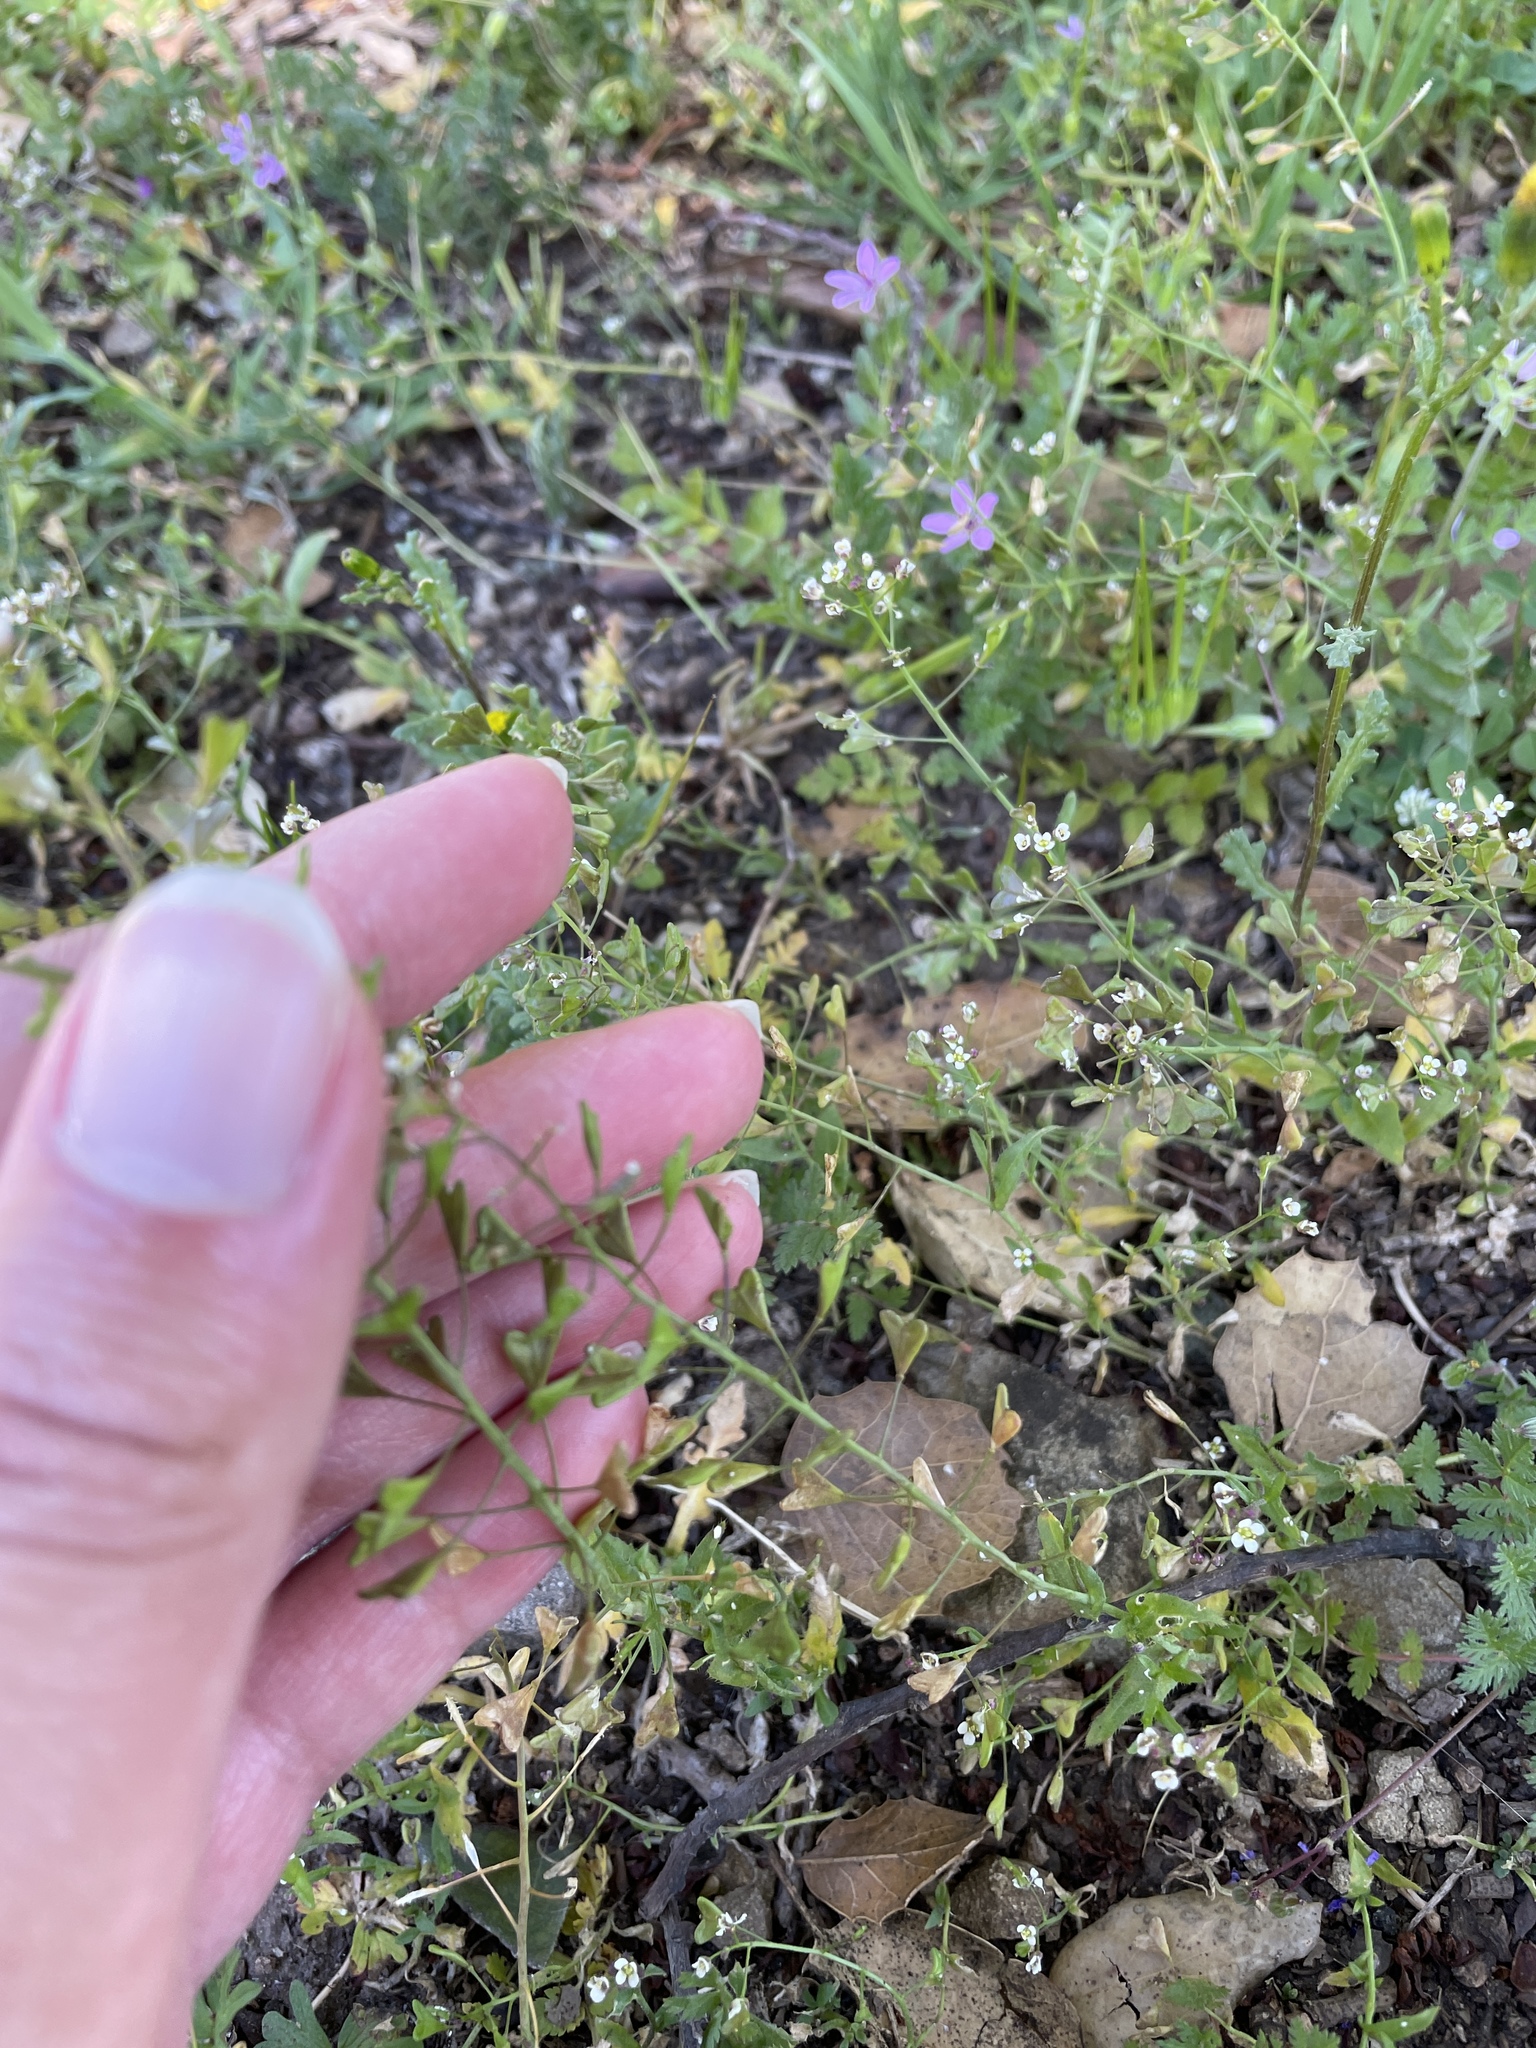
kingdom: Plantae
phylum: Tracheophyta
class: Magnoliopsida
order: Brassicales
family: Brassicaceae
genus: Capsella
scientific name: Capsella bursa-pastoris
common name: Shepherd's purse
